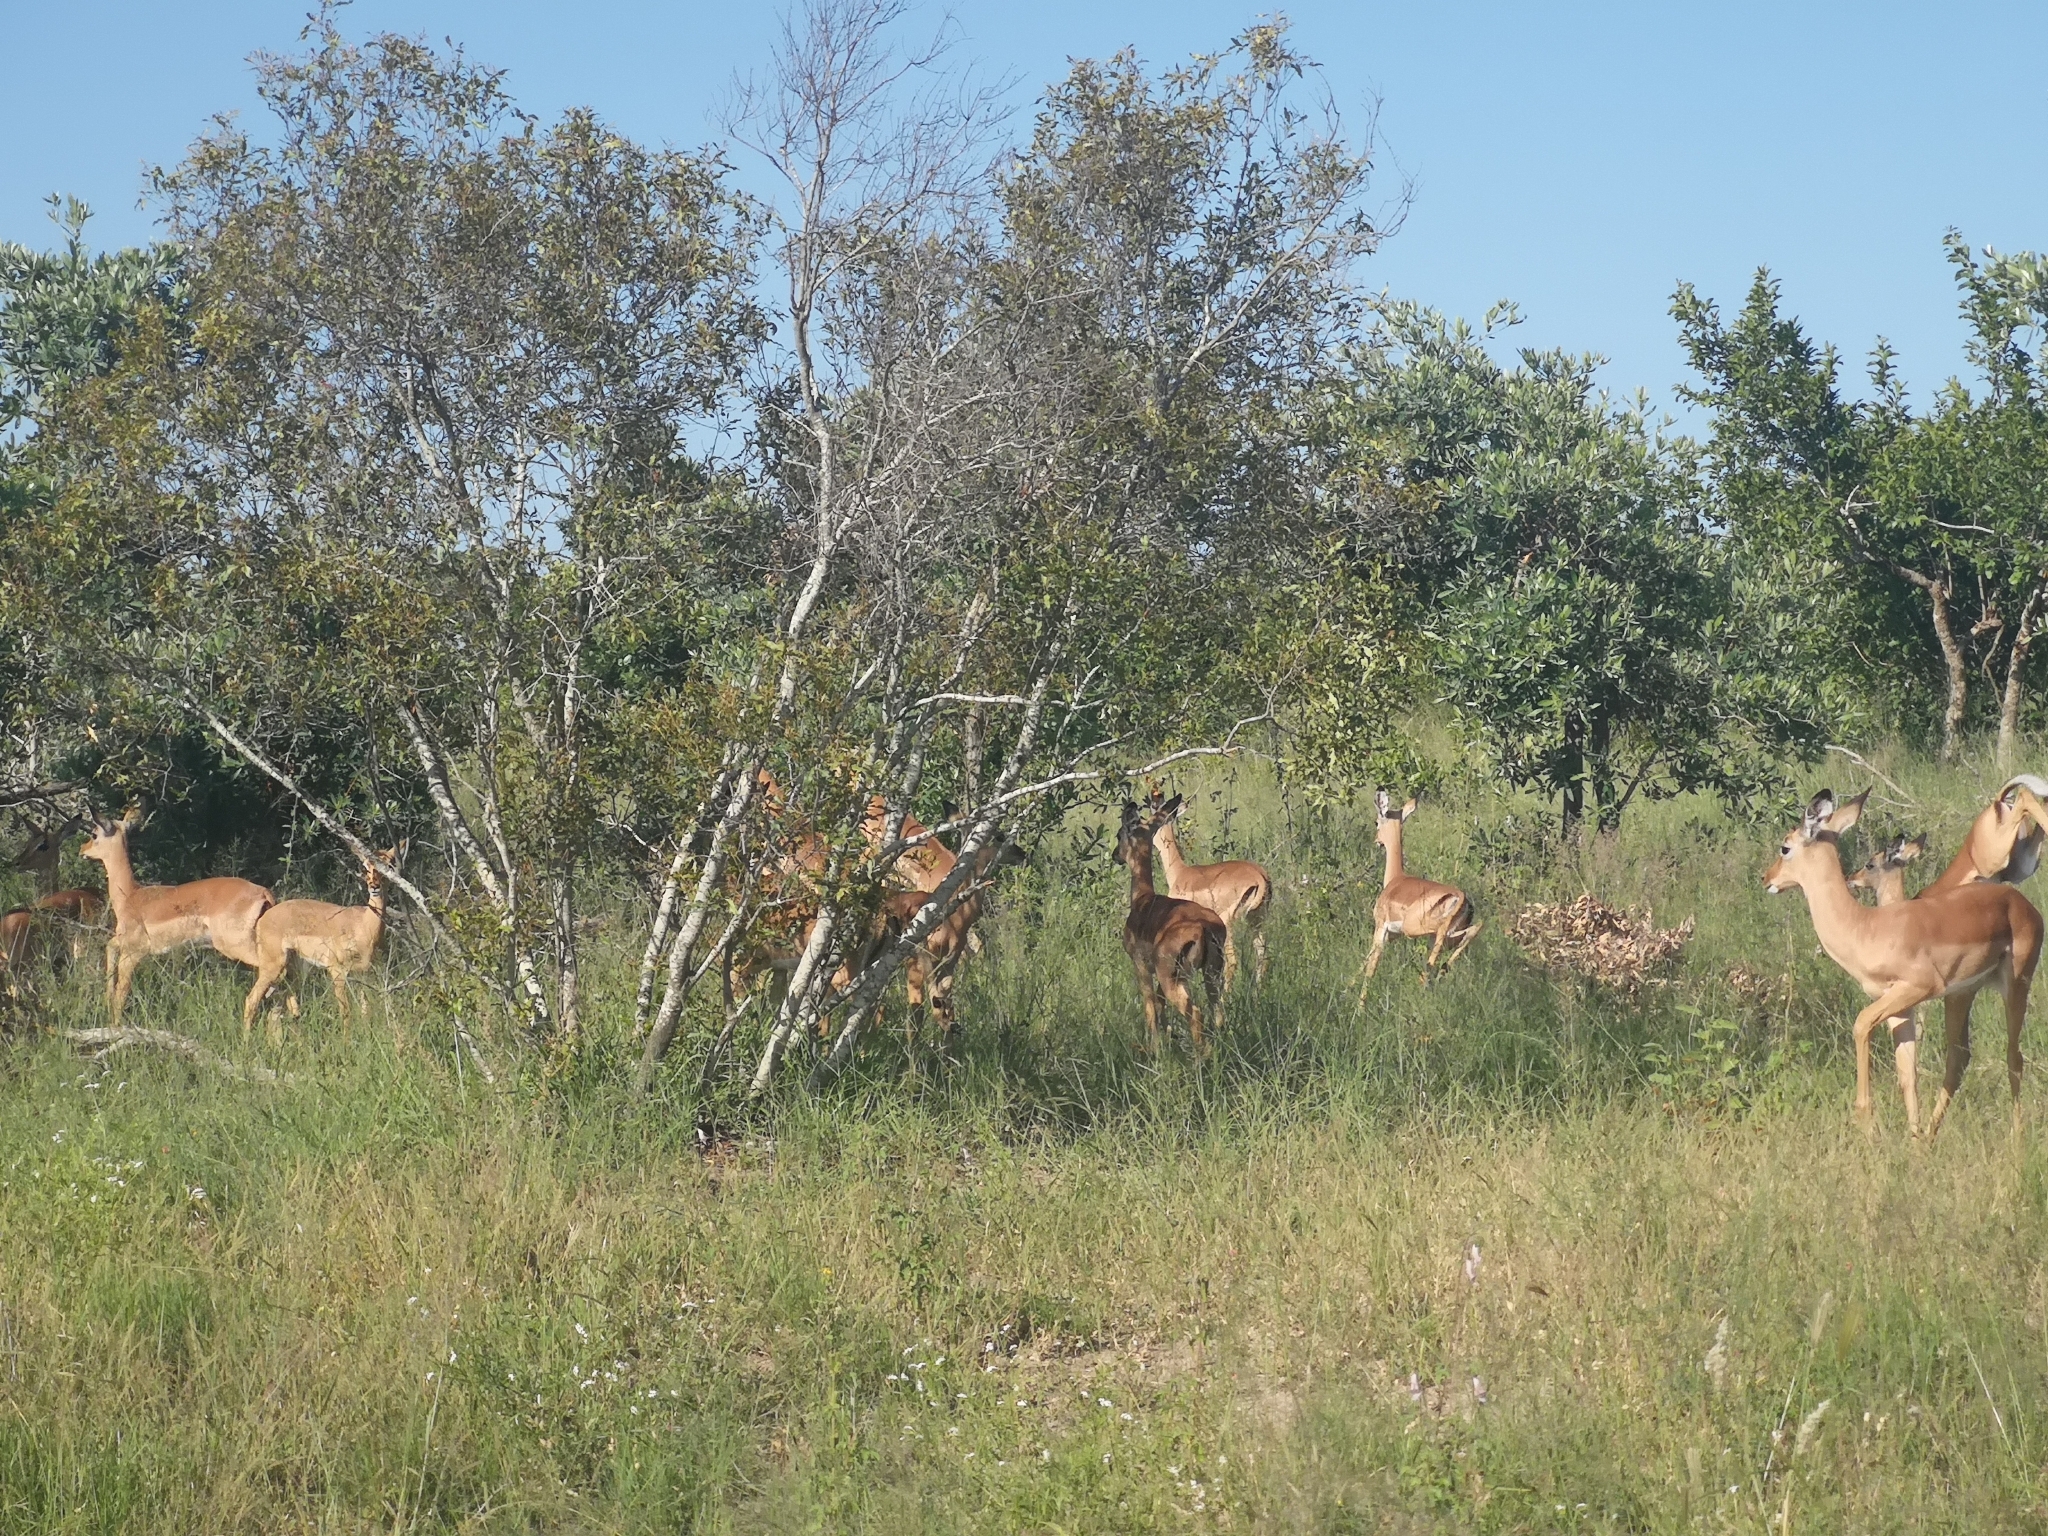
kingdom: Animalia
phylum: Chordata
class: Mammalia
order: Artiodactyla
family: Bovidae
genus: Aepyceros
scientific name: Aepyceros melampus
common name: Impala
